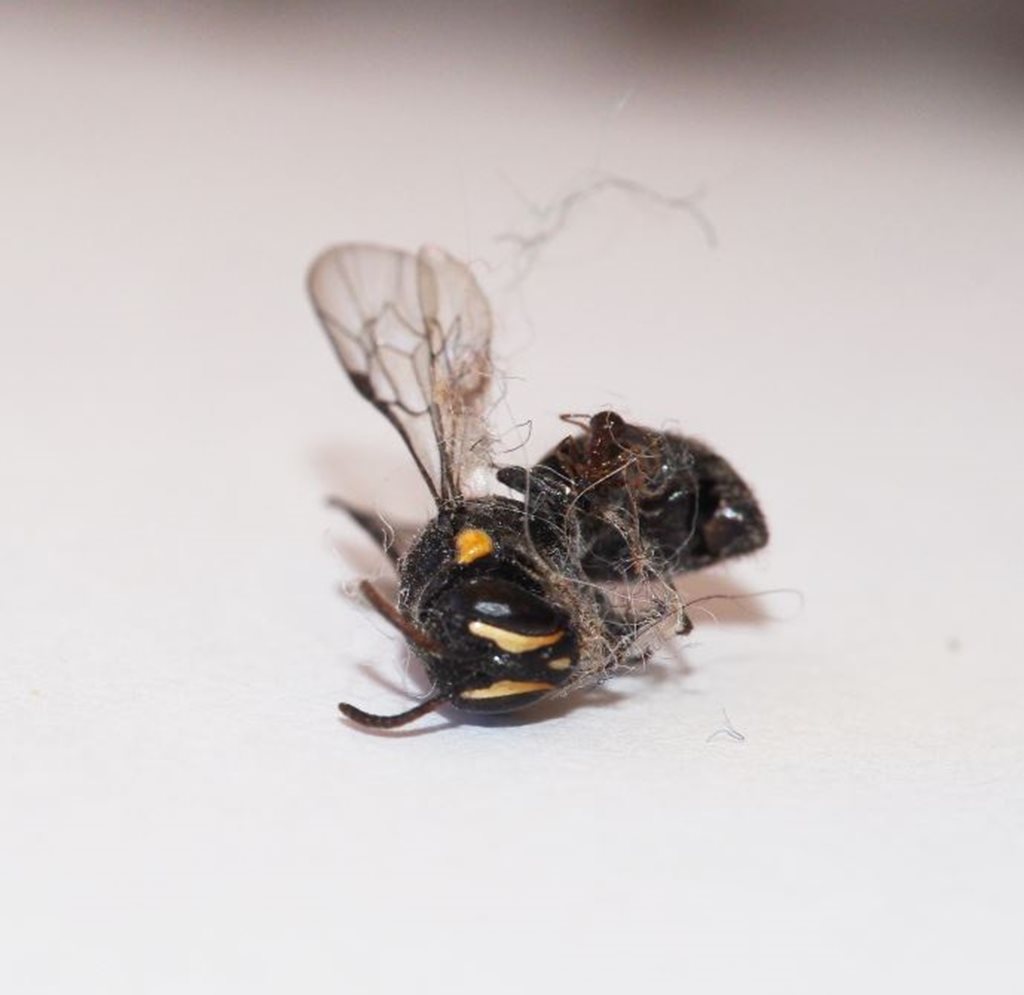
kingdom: Animalia
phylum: Arthropoda
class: Insecta
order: Hymenoptera
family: Colletidae
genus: Hylaeus
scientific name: Hylaeus nubilosus
